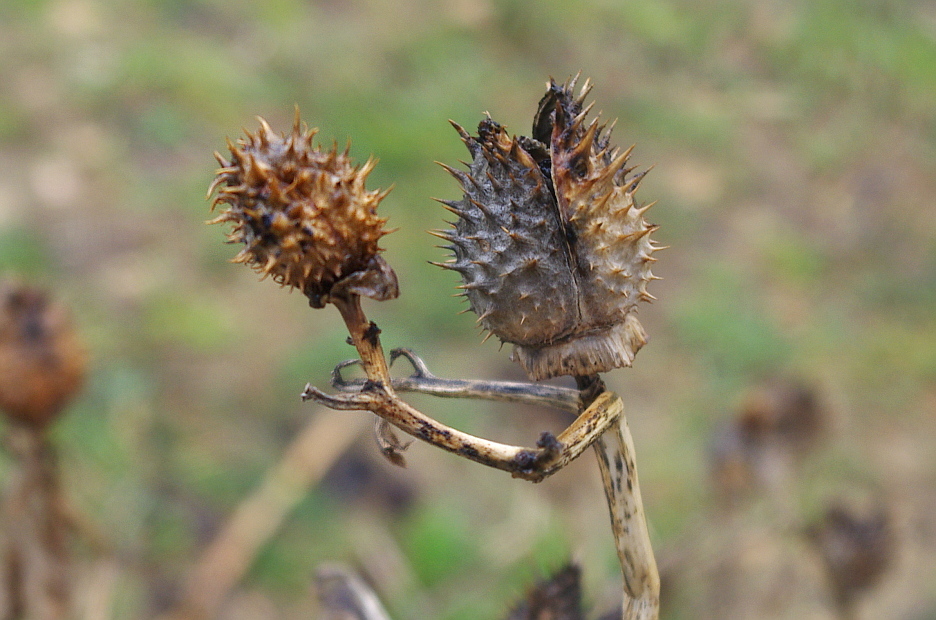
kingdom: Plantae
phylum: Tracheophyta
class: Magnoliopsida
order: Solanales
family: Solanaceae
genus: Datura
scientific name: Datura stramonium
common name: Thorn-apple
